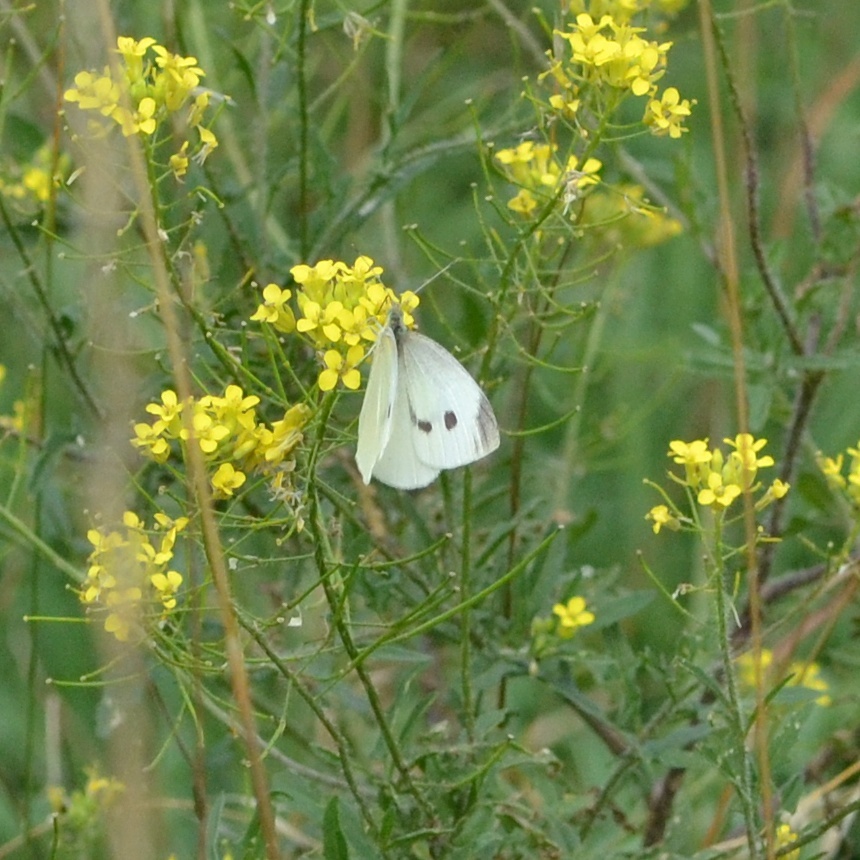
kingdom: Animalia
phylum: Arthropoda
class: Insecta
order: Lepidoptera
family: Pieridae
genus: Pieris
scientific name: Pieris rapae
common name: Small white
